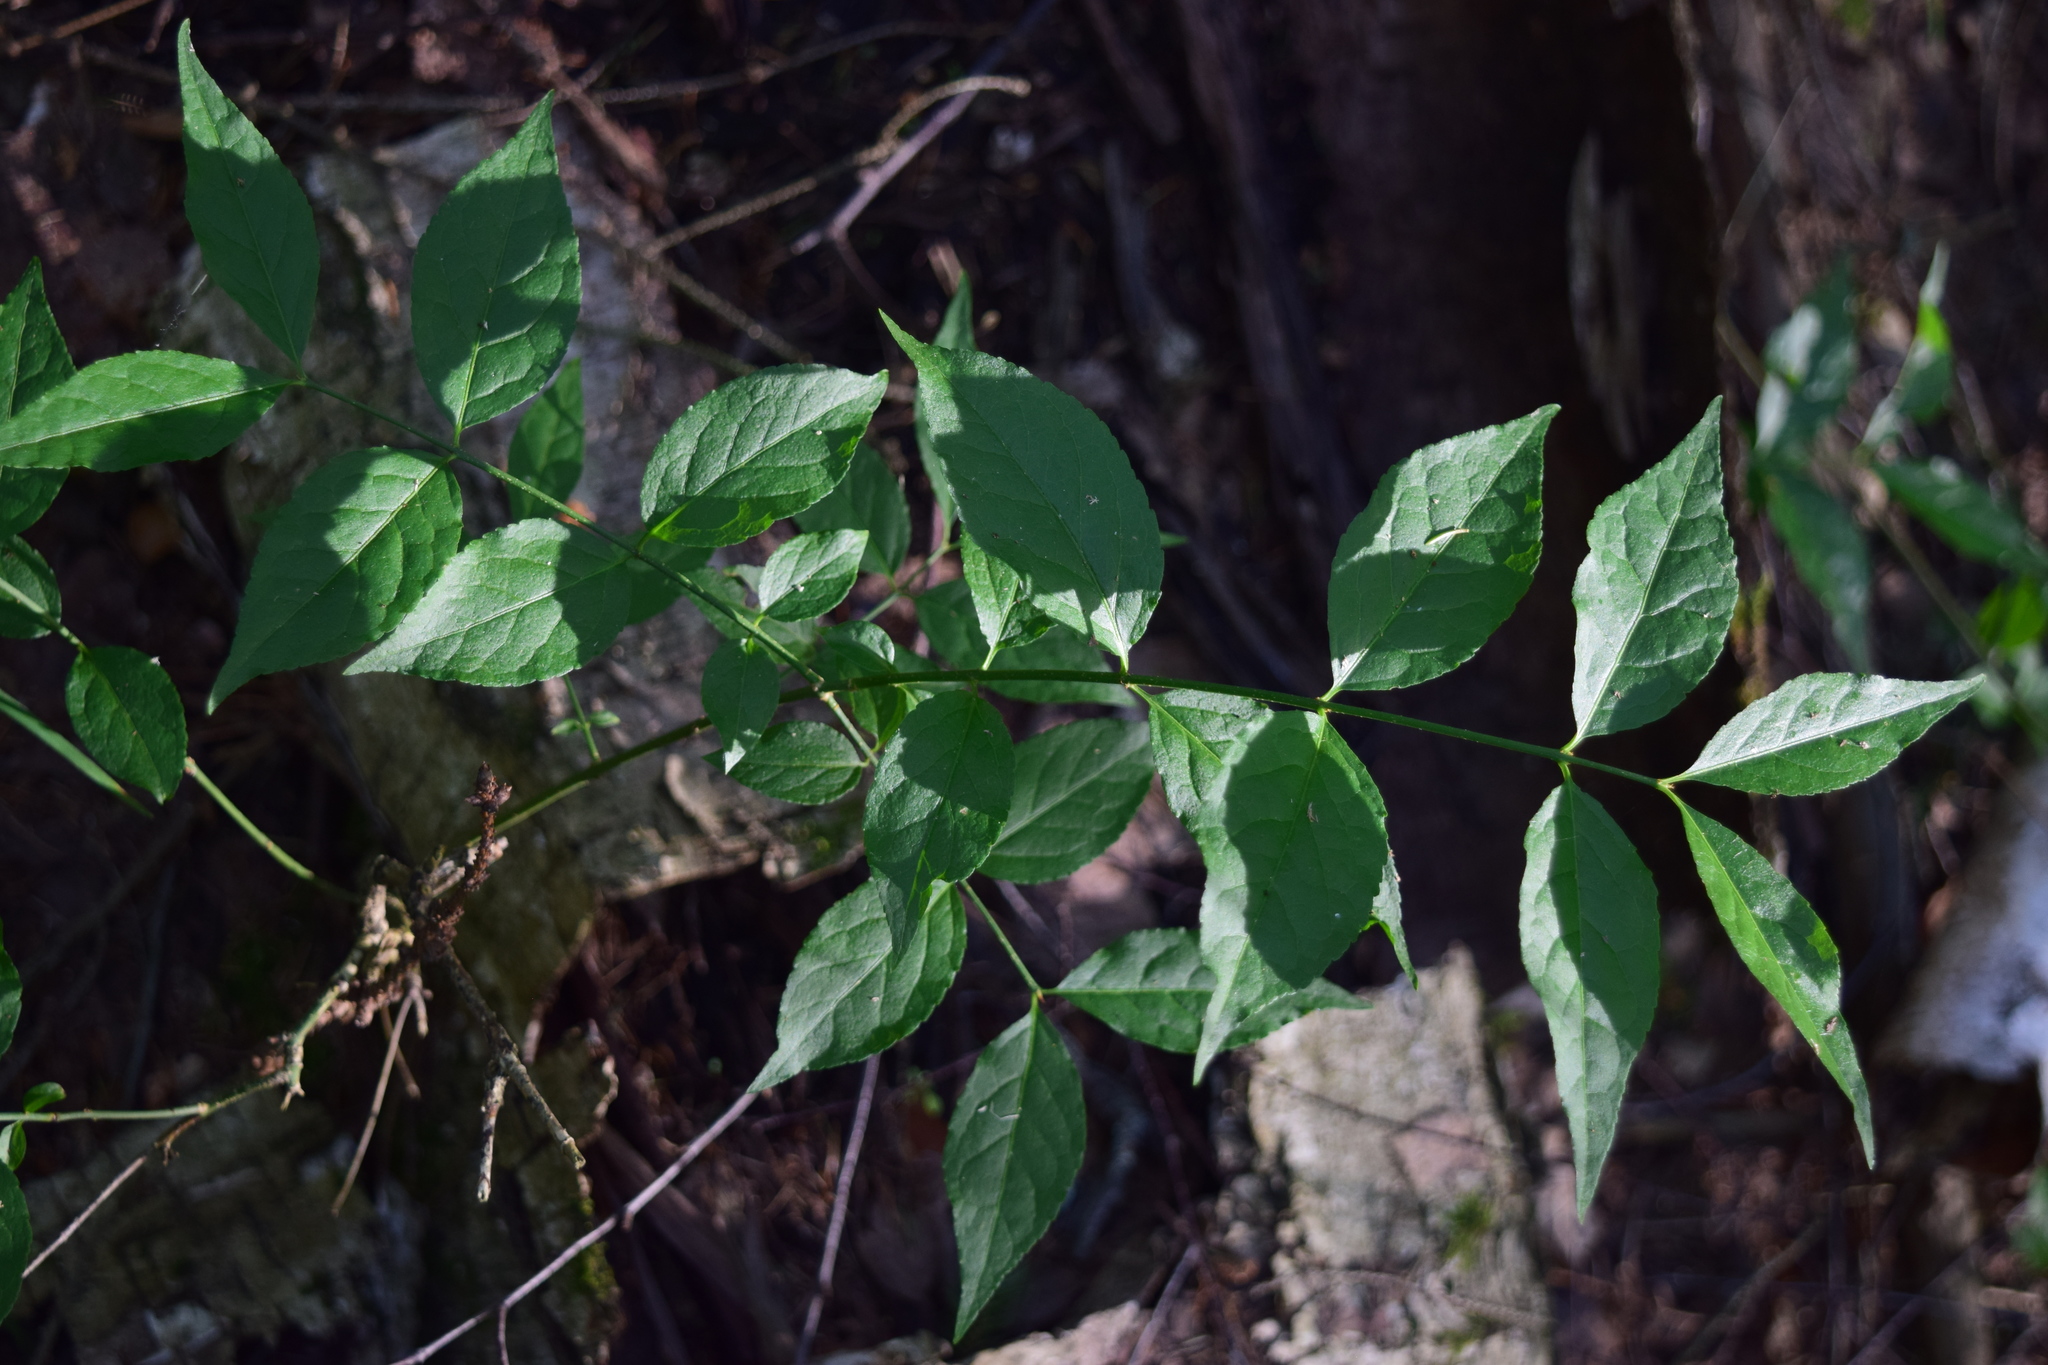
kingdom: Plantae
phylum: Tracheophyta
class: Magnoliopsida
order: Celastrales
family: Celastraceae
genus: Euonymus
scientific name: Euonymus verrucosus
